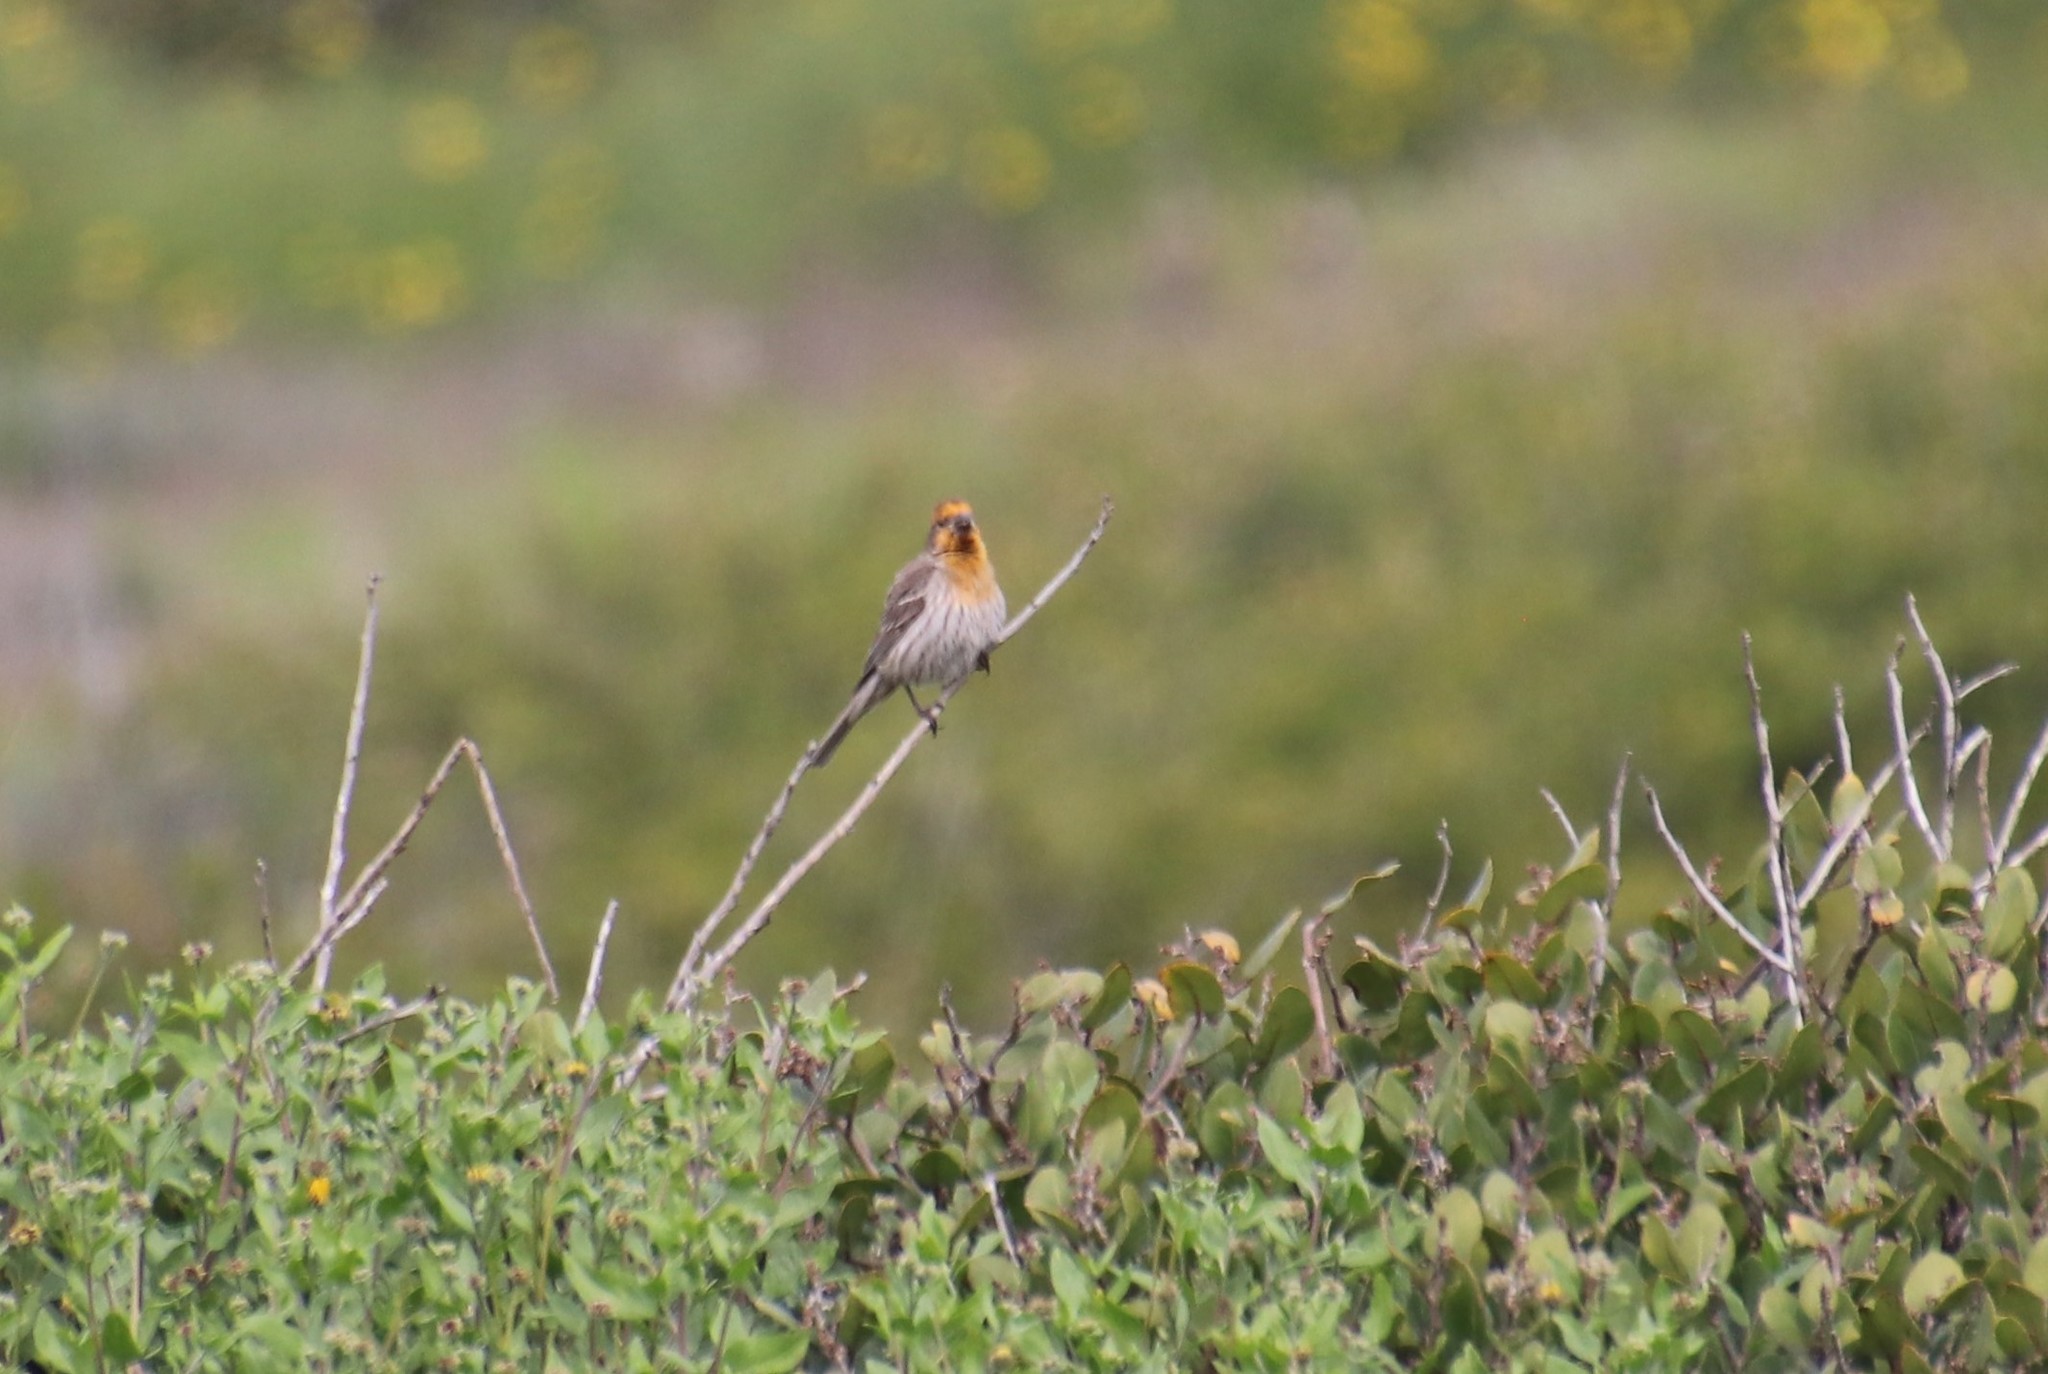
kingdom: Animalia
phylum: Chordata
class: Aves
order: Passeriformes
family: Fringillidae
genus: Haemorhous
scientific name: Haemorhous mexicanus
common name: House finch
